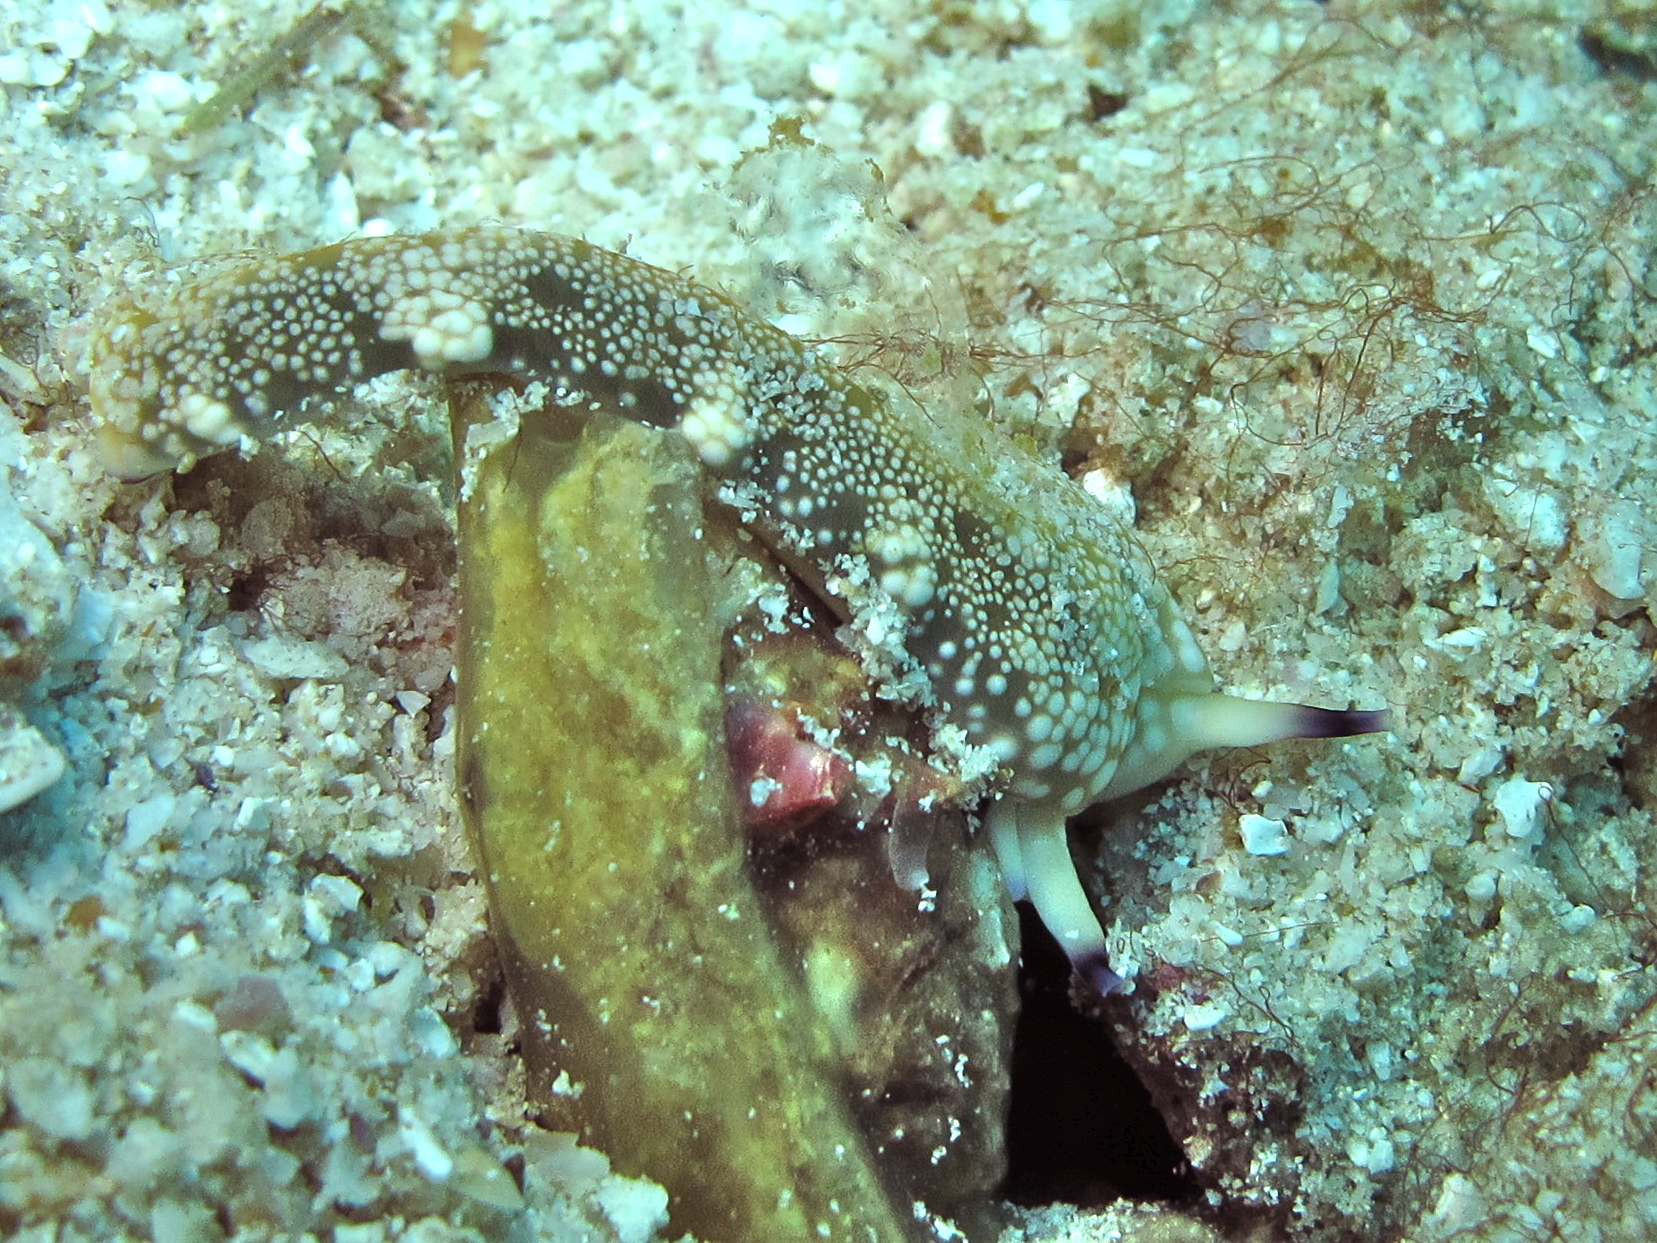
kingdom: Animalia
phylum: Mollusca
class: Gastropoda
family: Plakobranchidae
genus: Plakobranchus
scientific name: Plakobranchus papua
